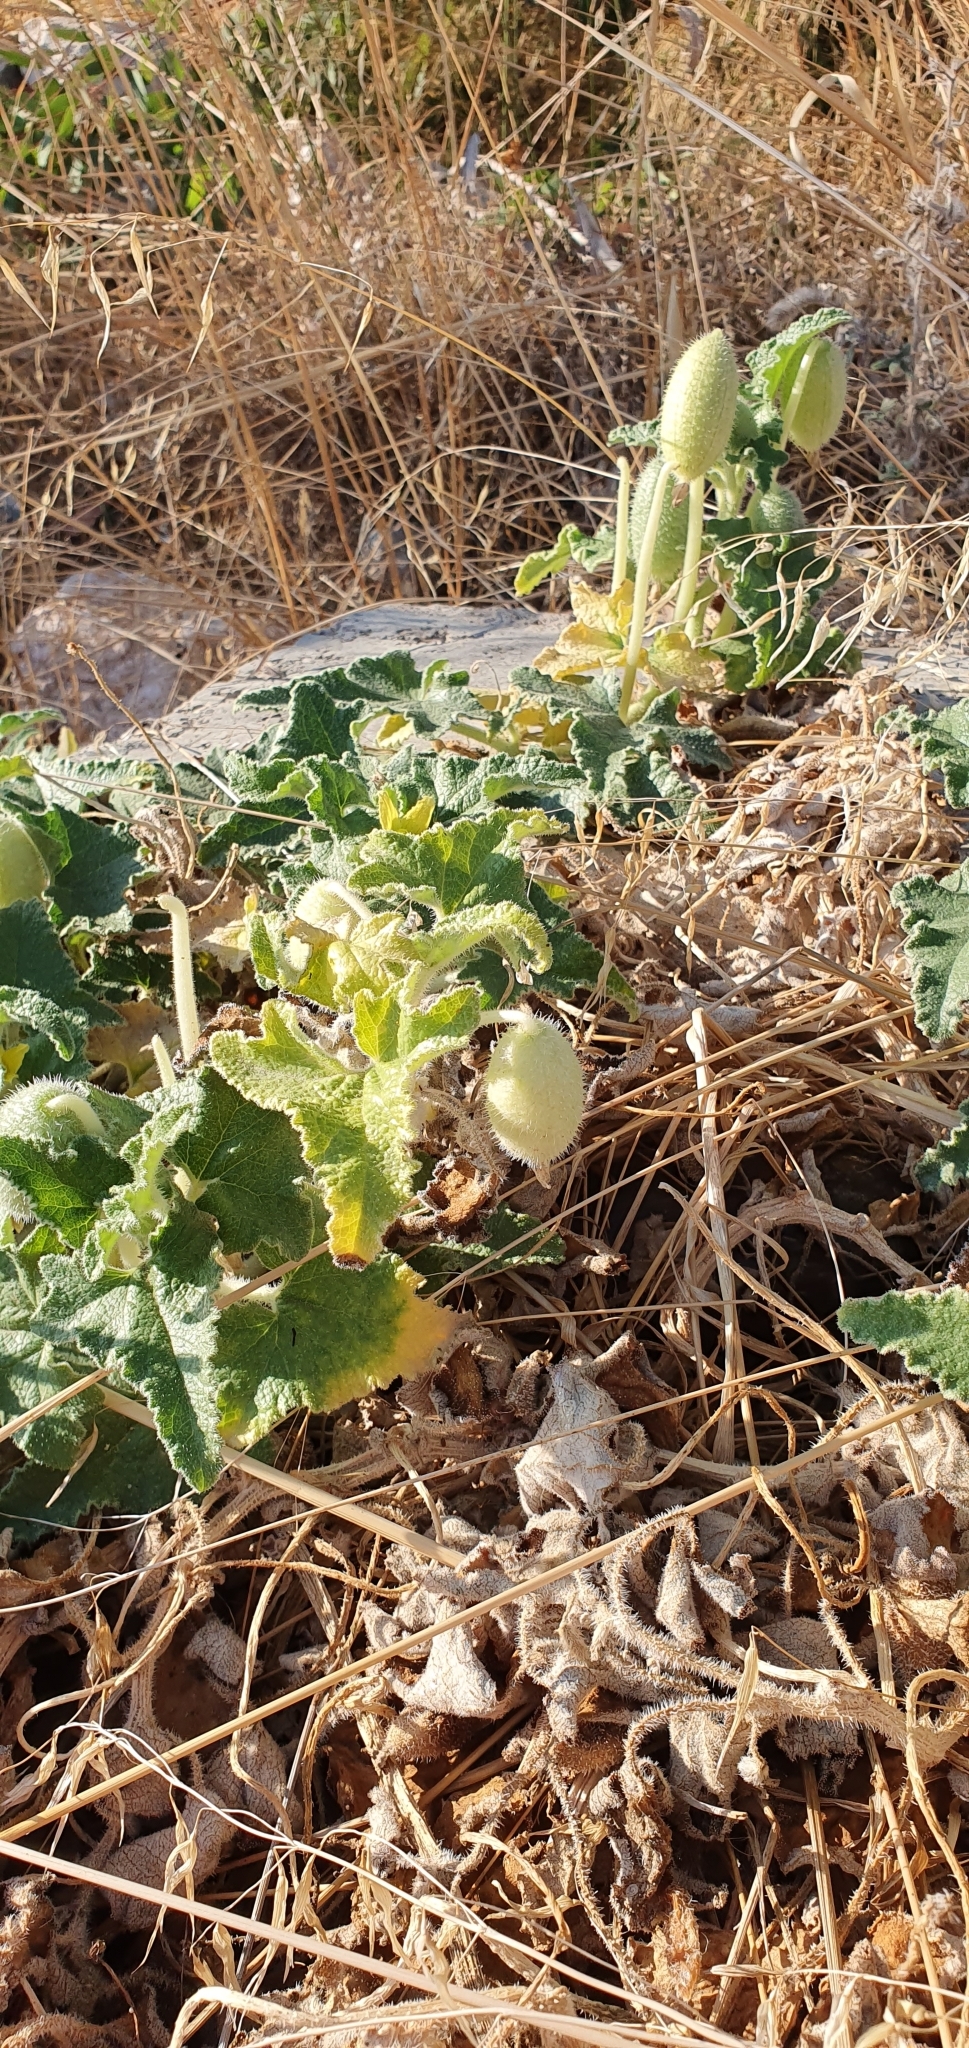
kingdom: Plantae
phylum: Tracheophyta
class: Magnoliopsida
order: Cucurbitales
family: Cucurbitaceae
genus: Ecballium
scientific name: Ecballium elaterium
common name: Squirting cucumber
